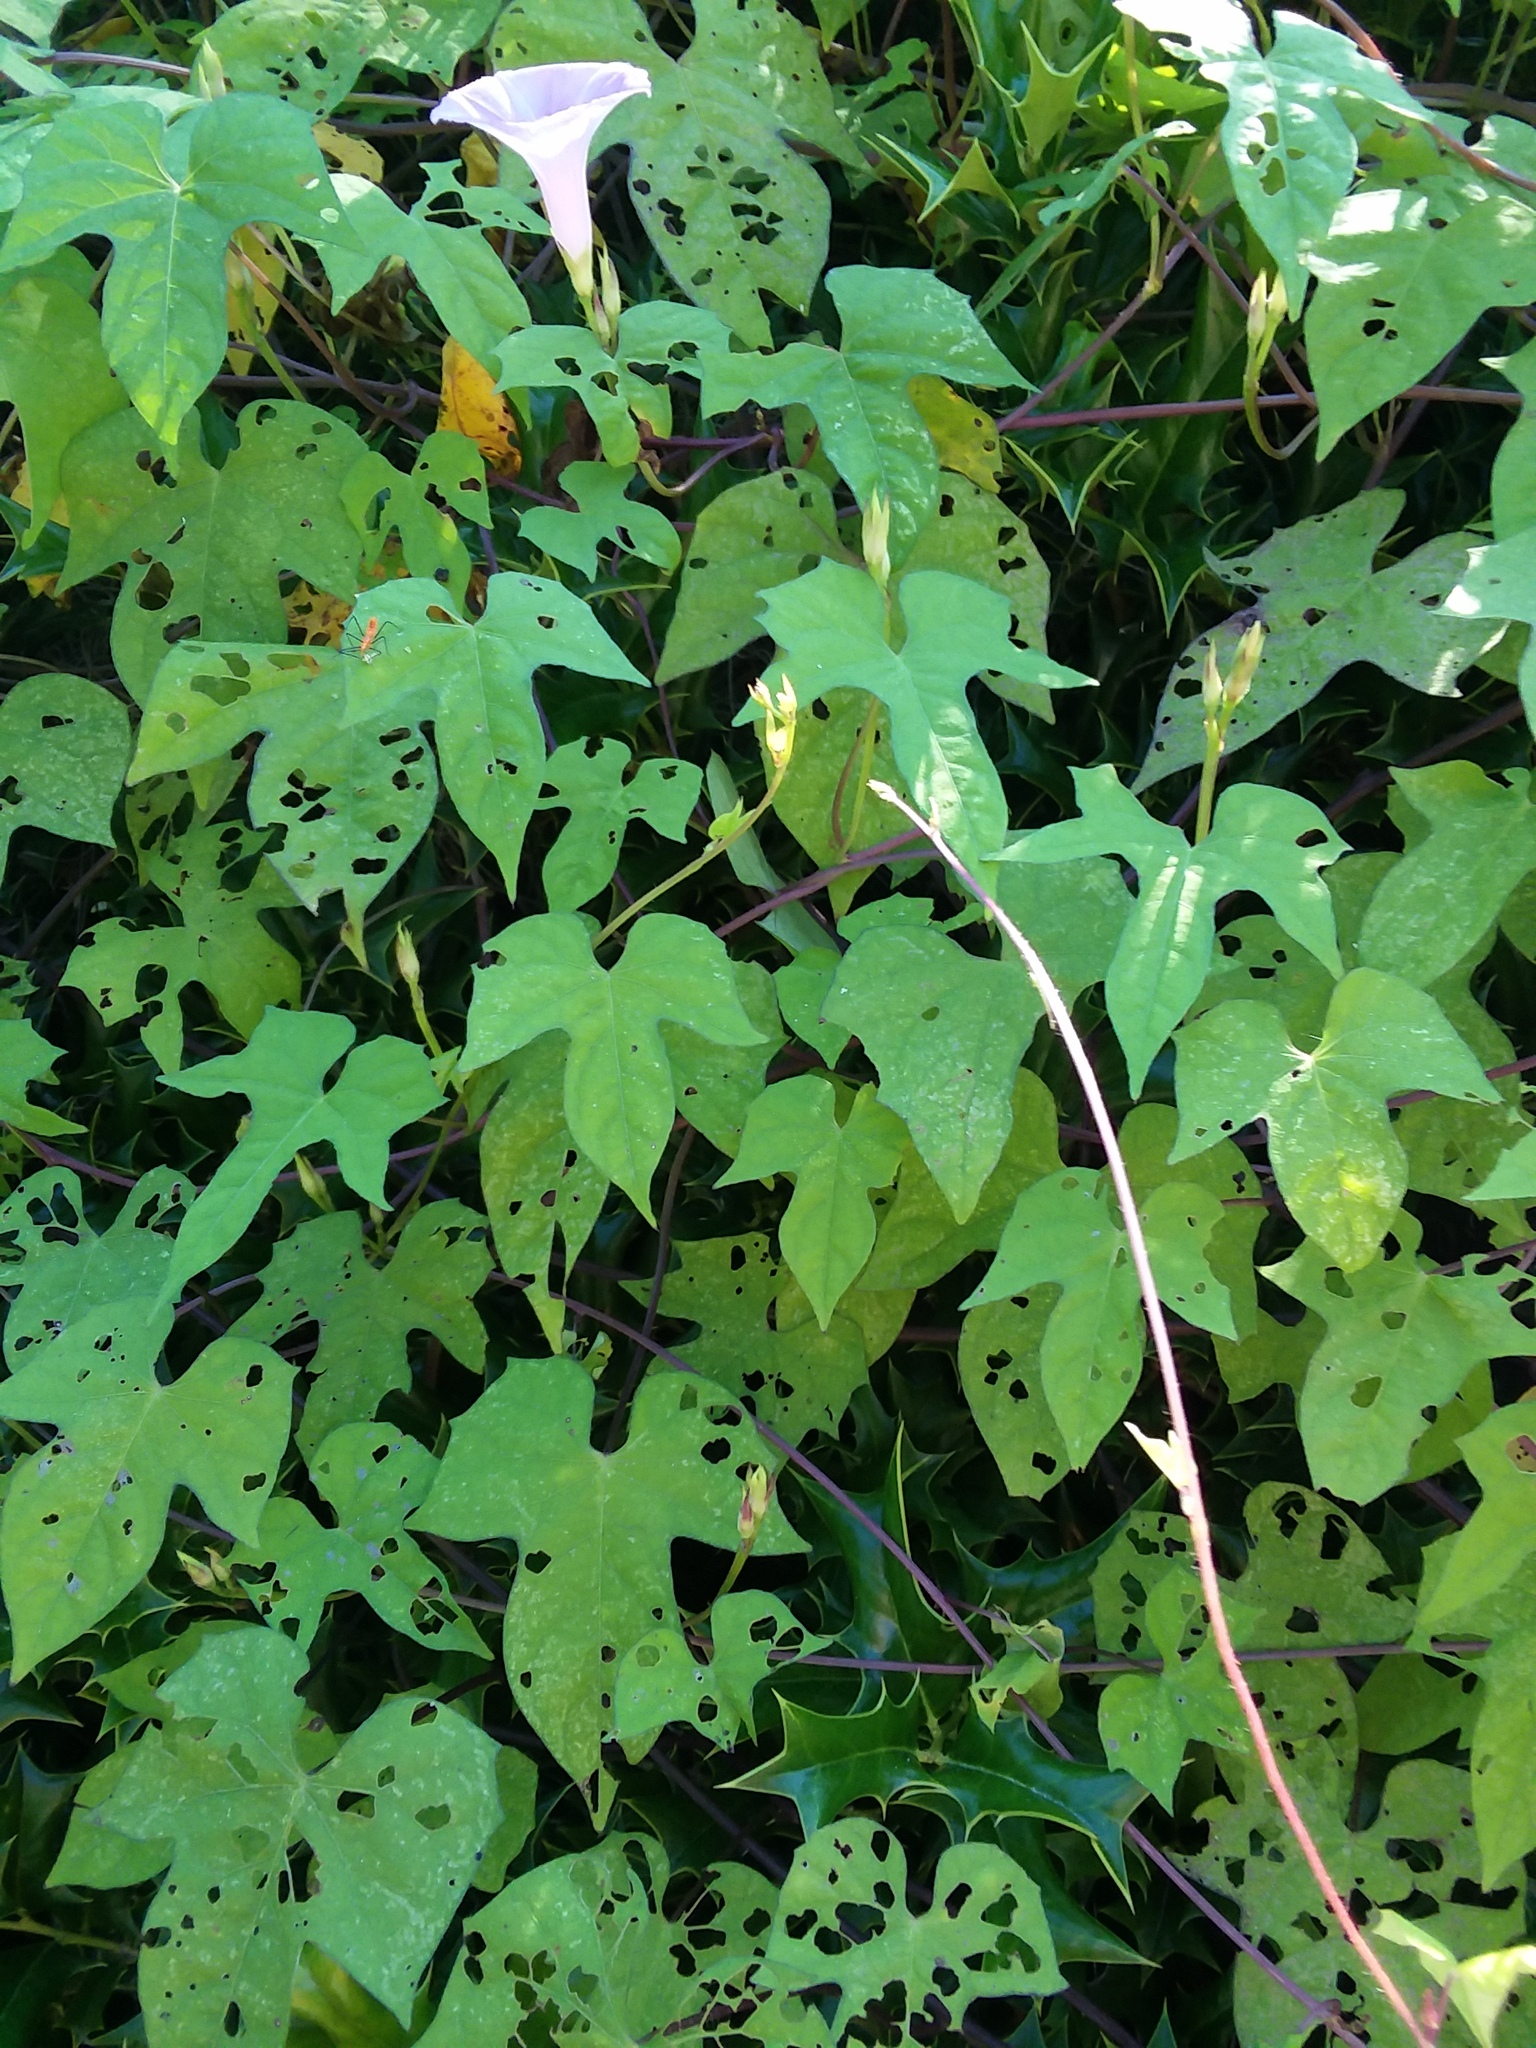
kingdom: Plantae
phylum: Tracheophyta
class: Magnoliopsida
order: Solanales
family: Convolvulaceae
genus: Ipomoea
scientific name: Ipomoea cordatotriloba
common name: Cotton morning glory
